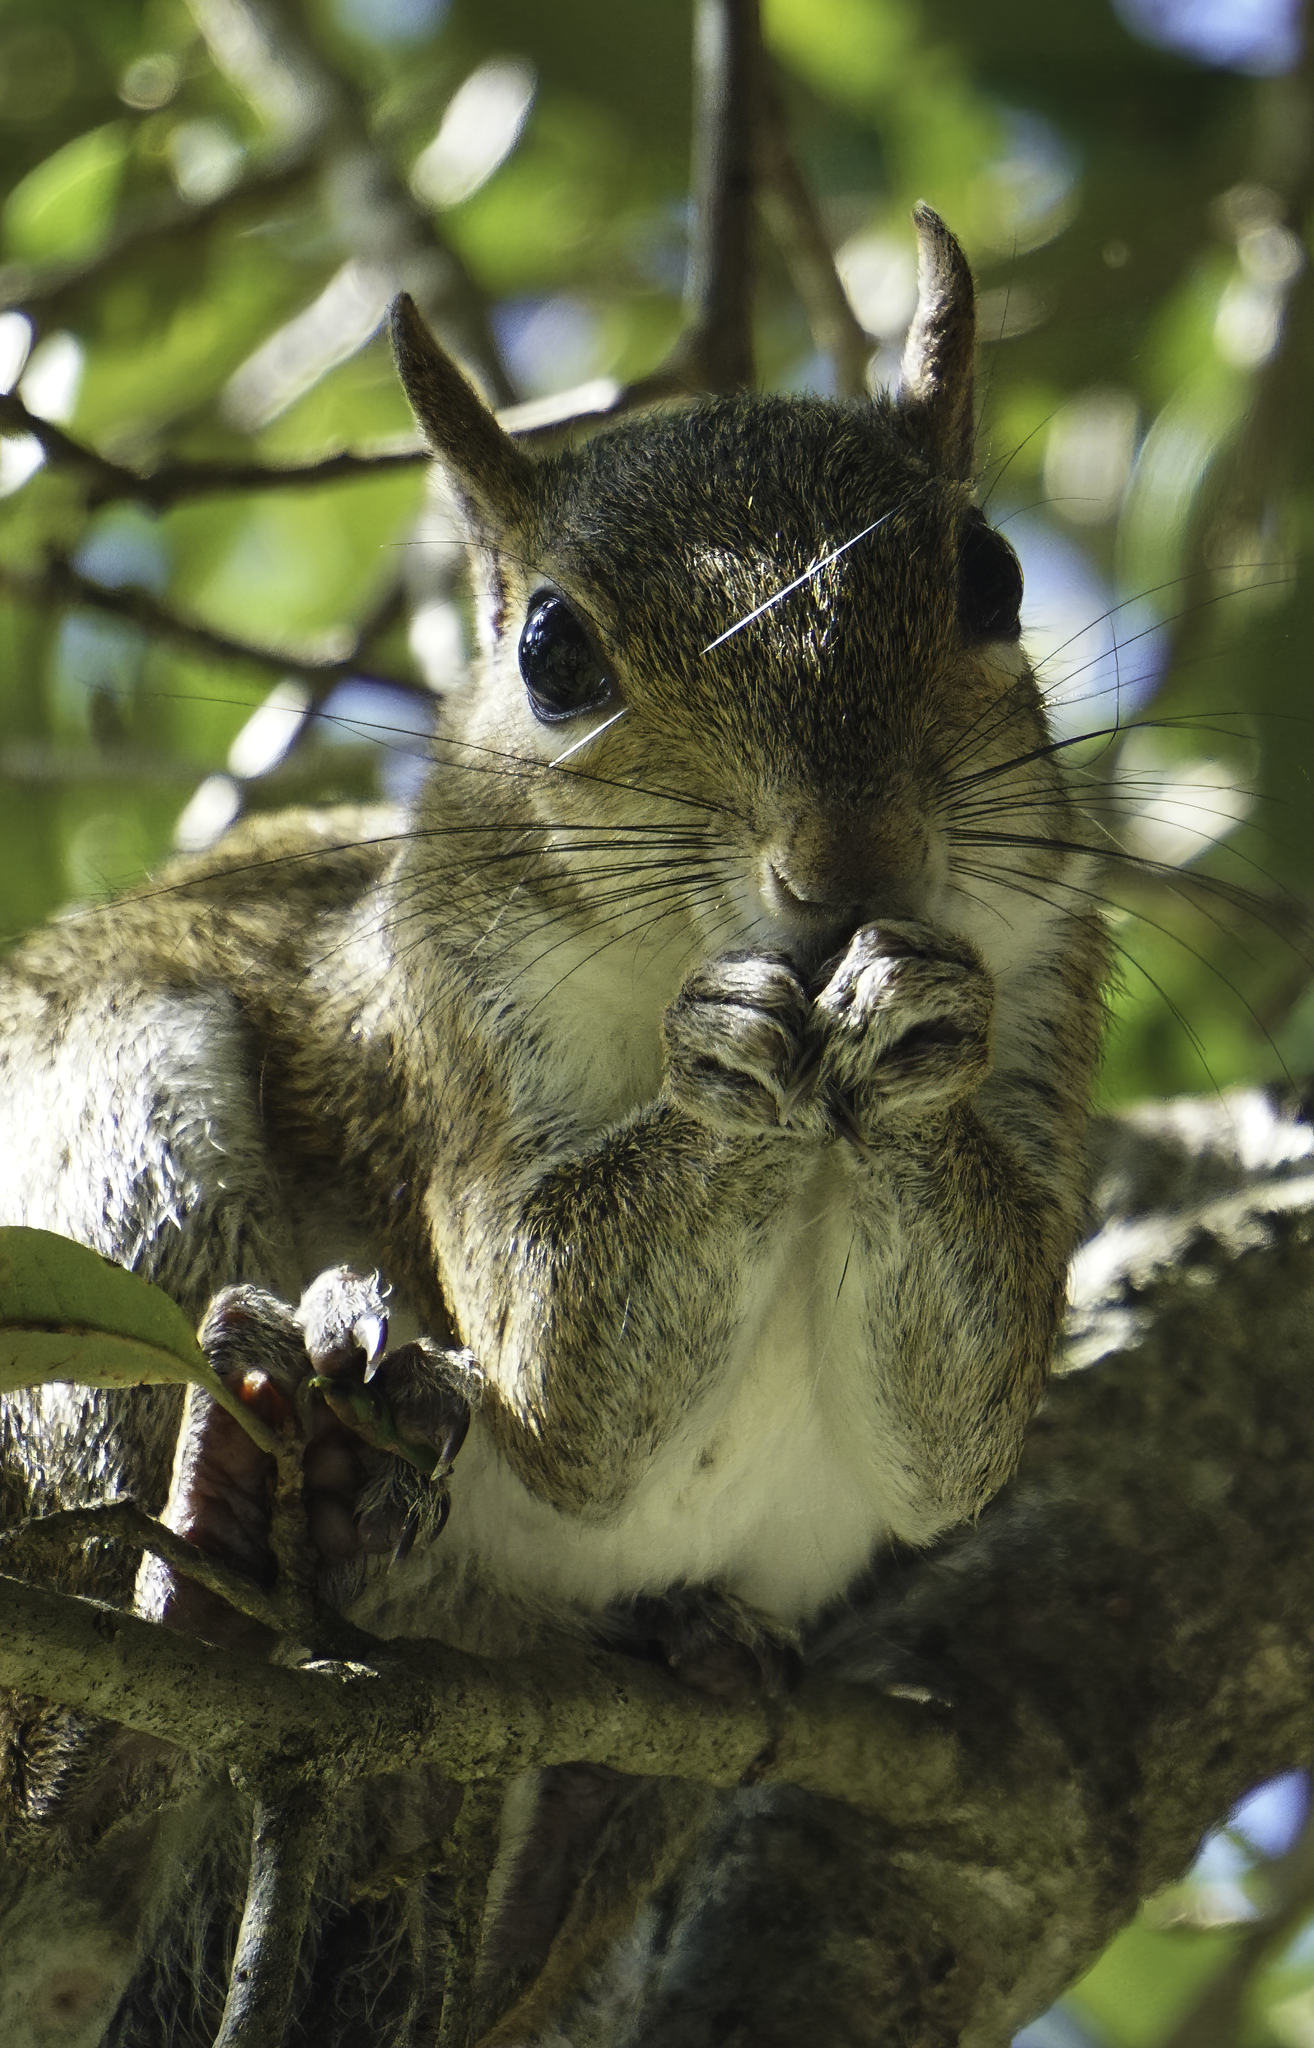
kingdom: Animalia
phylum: Chordata
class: Mammalia
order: Rodentia
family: Sciuridae
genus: Sciurus
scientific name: Sciurus carolinensis
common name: Eastern gray squirrel
